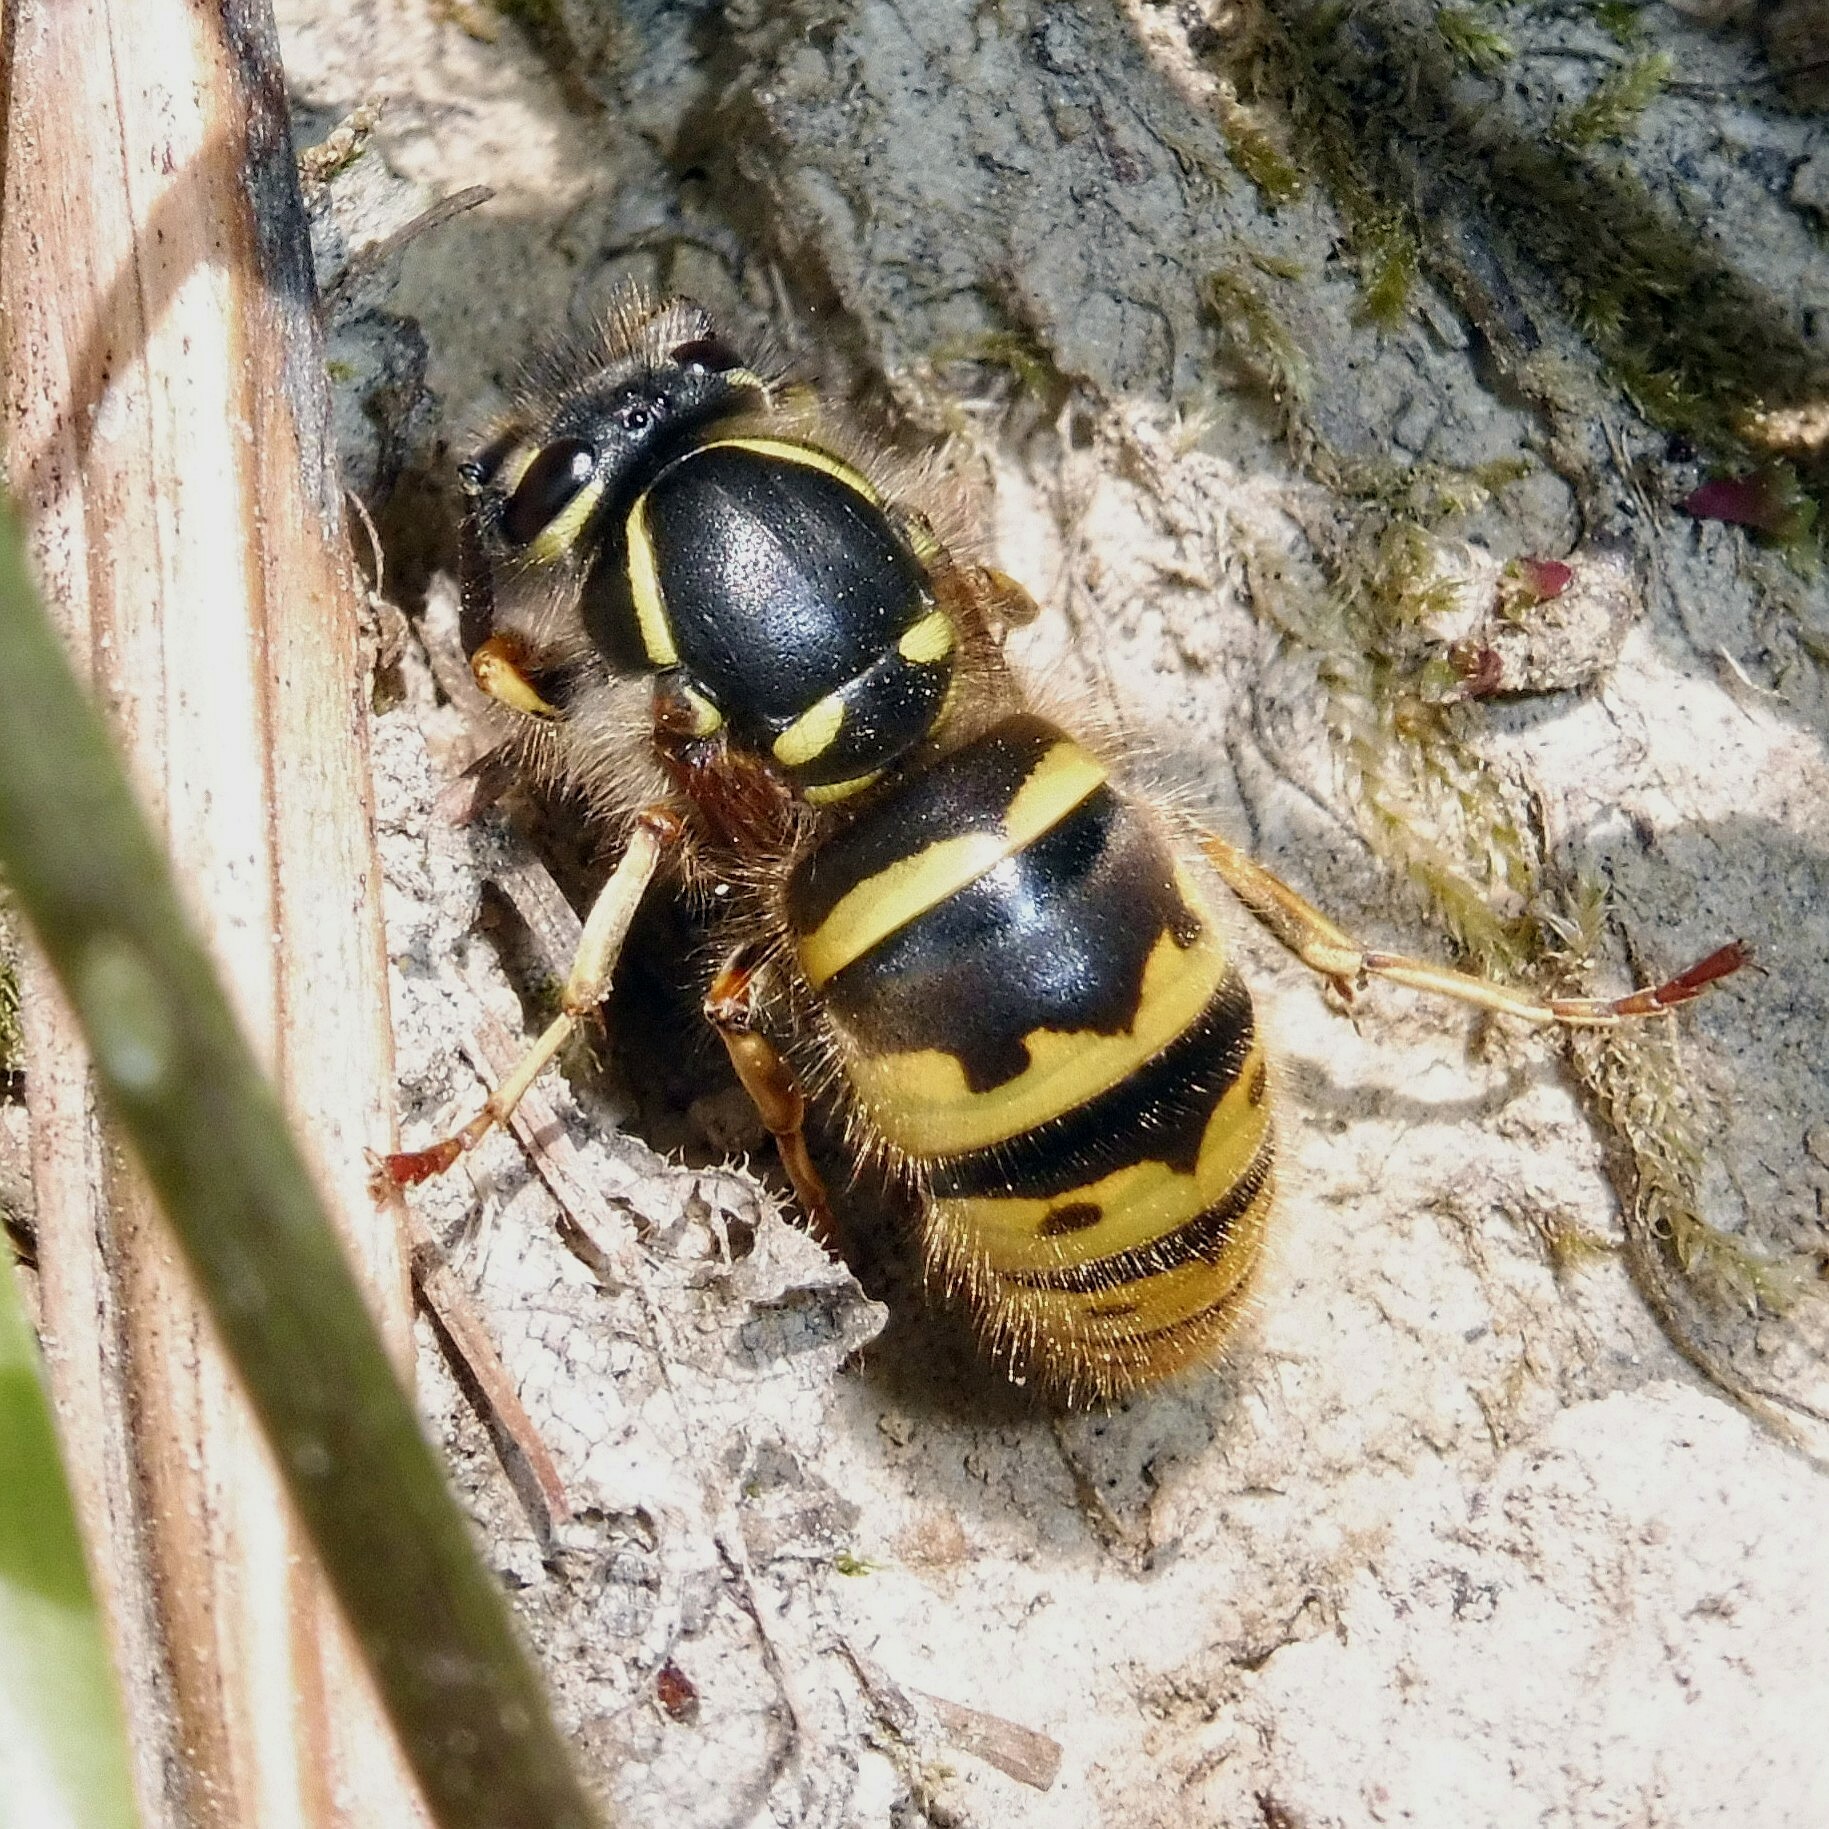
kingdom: Animalia
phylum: Arthropoda
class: Insecta
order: Hymenoptera
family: Vespidae
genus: Vespula
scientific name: Vespula vulgaris
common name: Common wasp
